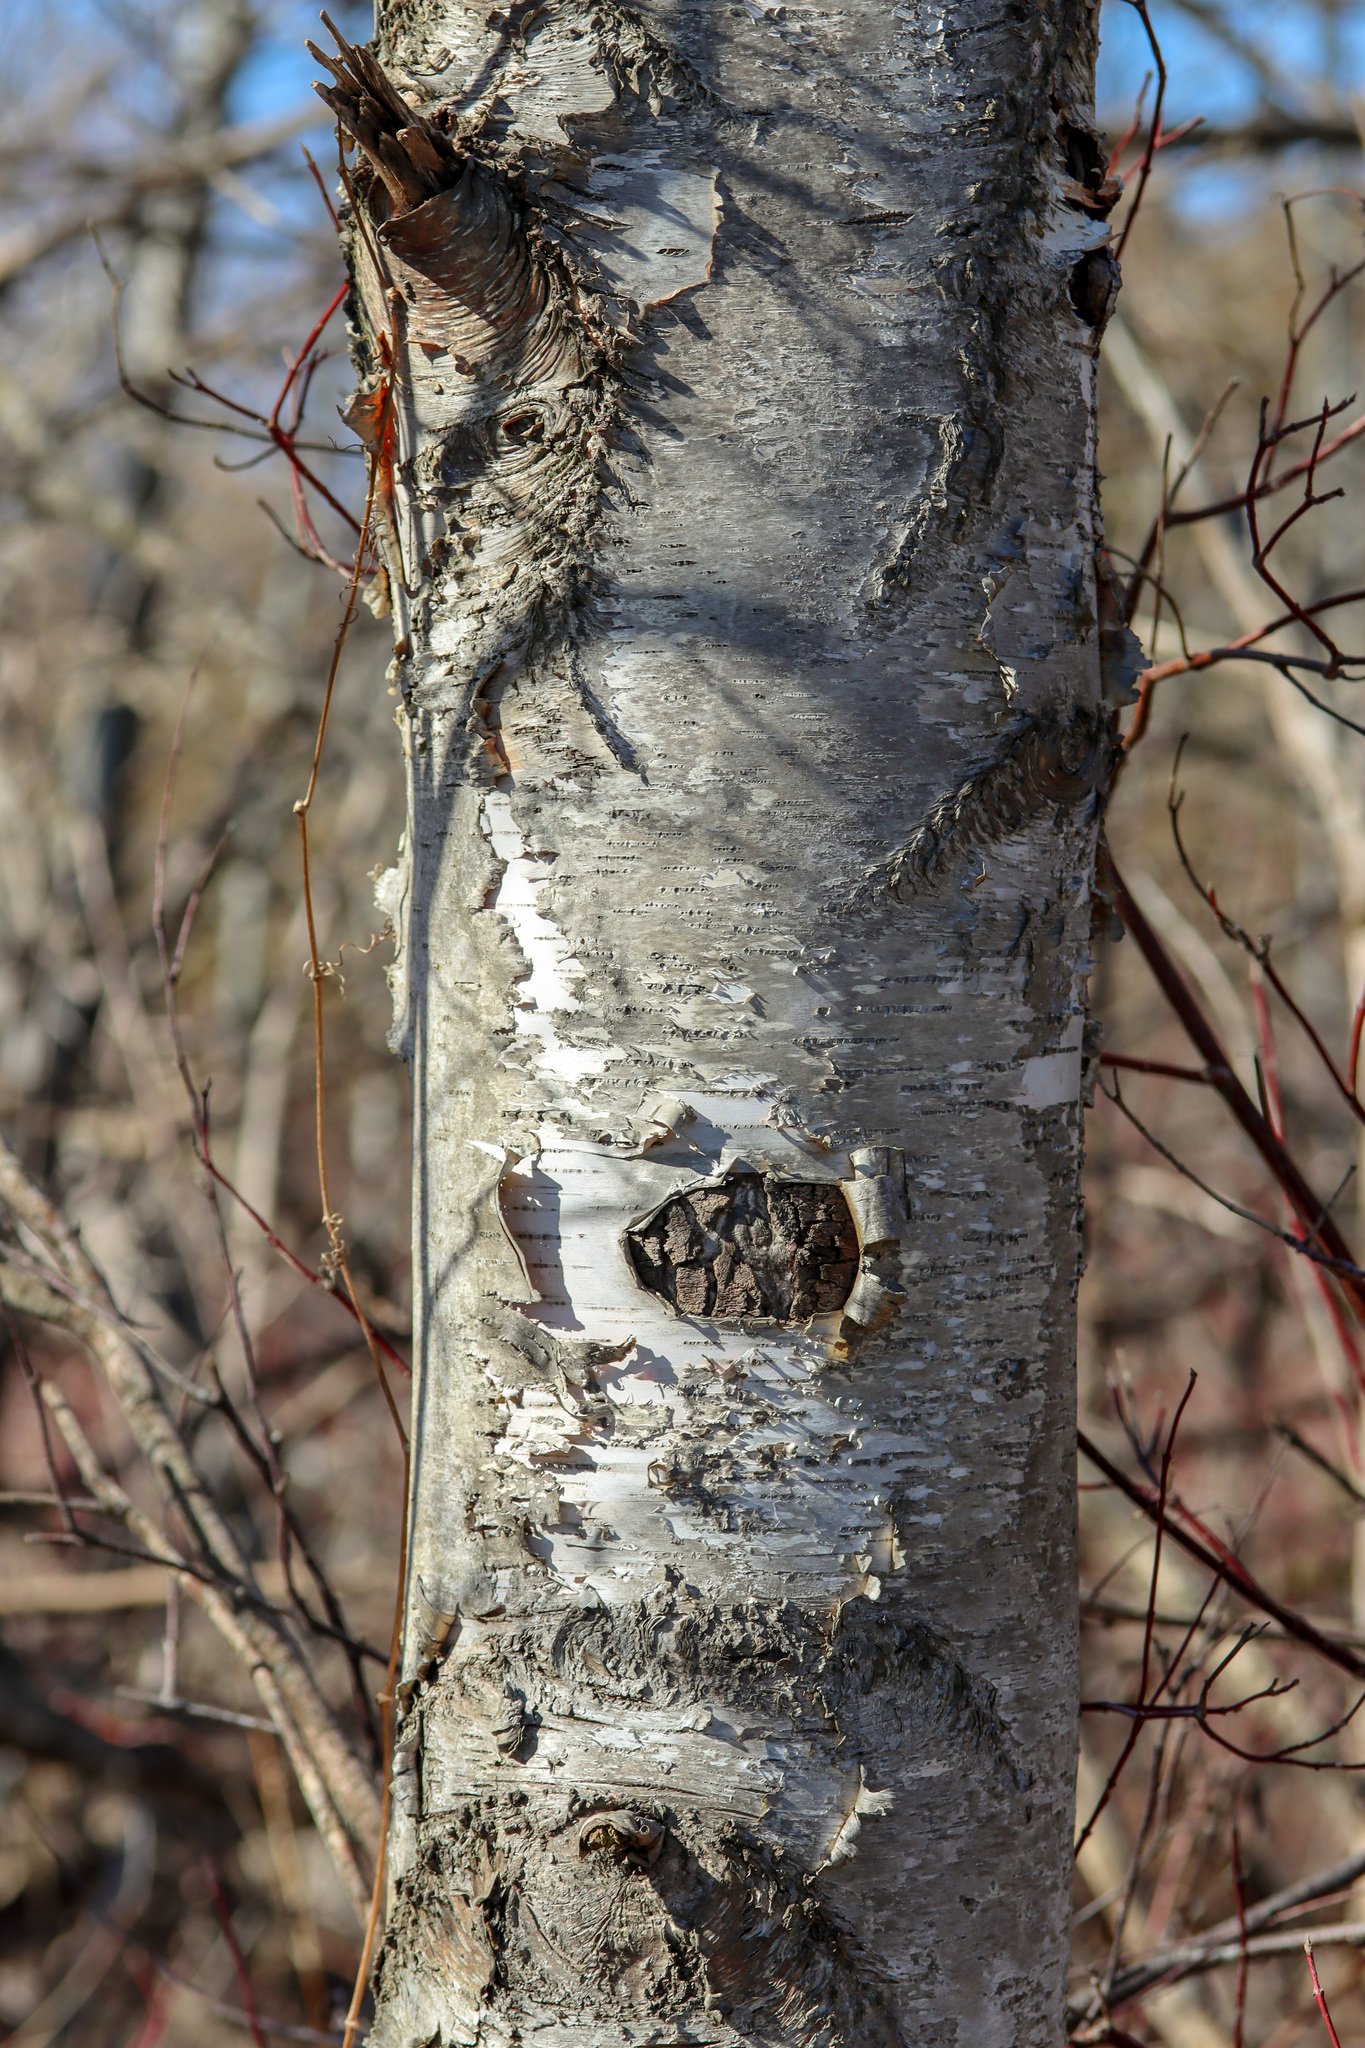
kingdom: Plantae
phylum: Tracheophyta
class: Magnoliopsida
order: Fagales
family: Betulaceae
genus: Betula
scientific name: Betula papyrifera
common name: Paper birch
